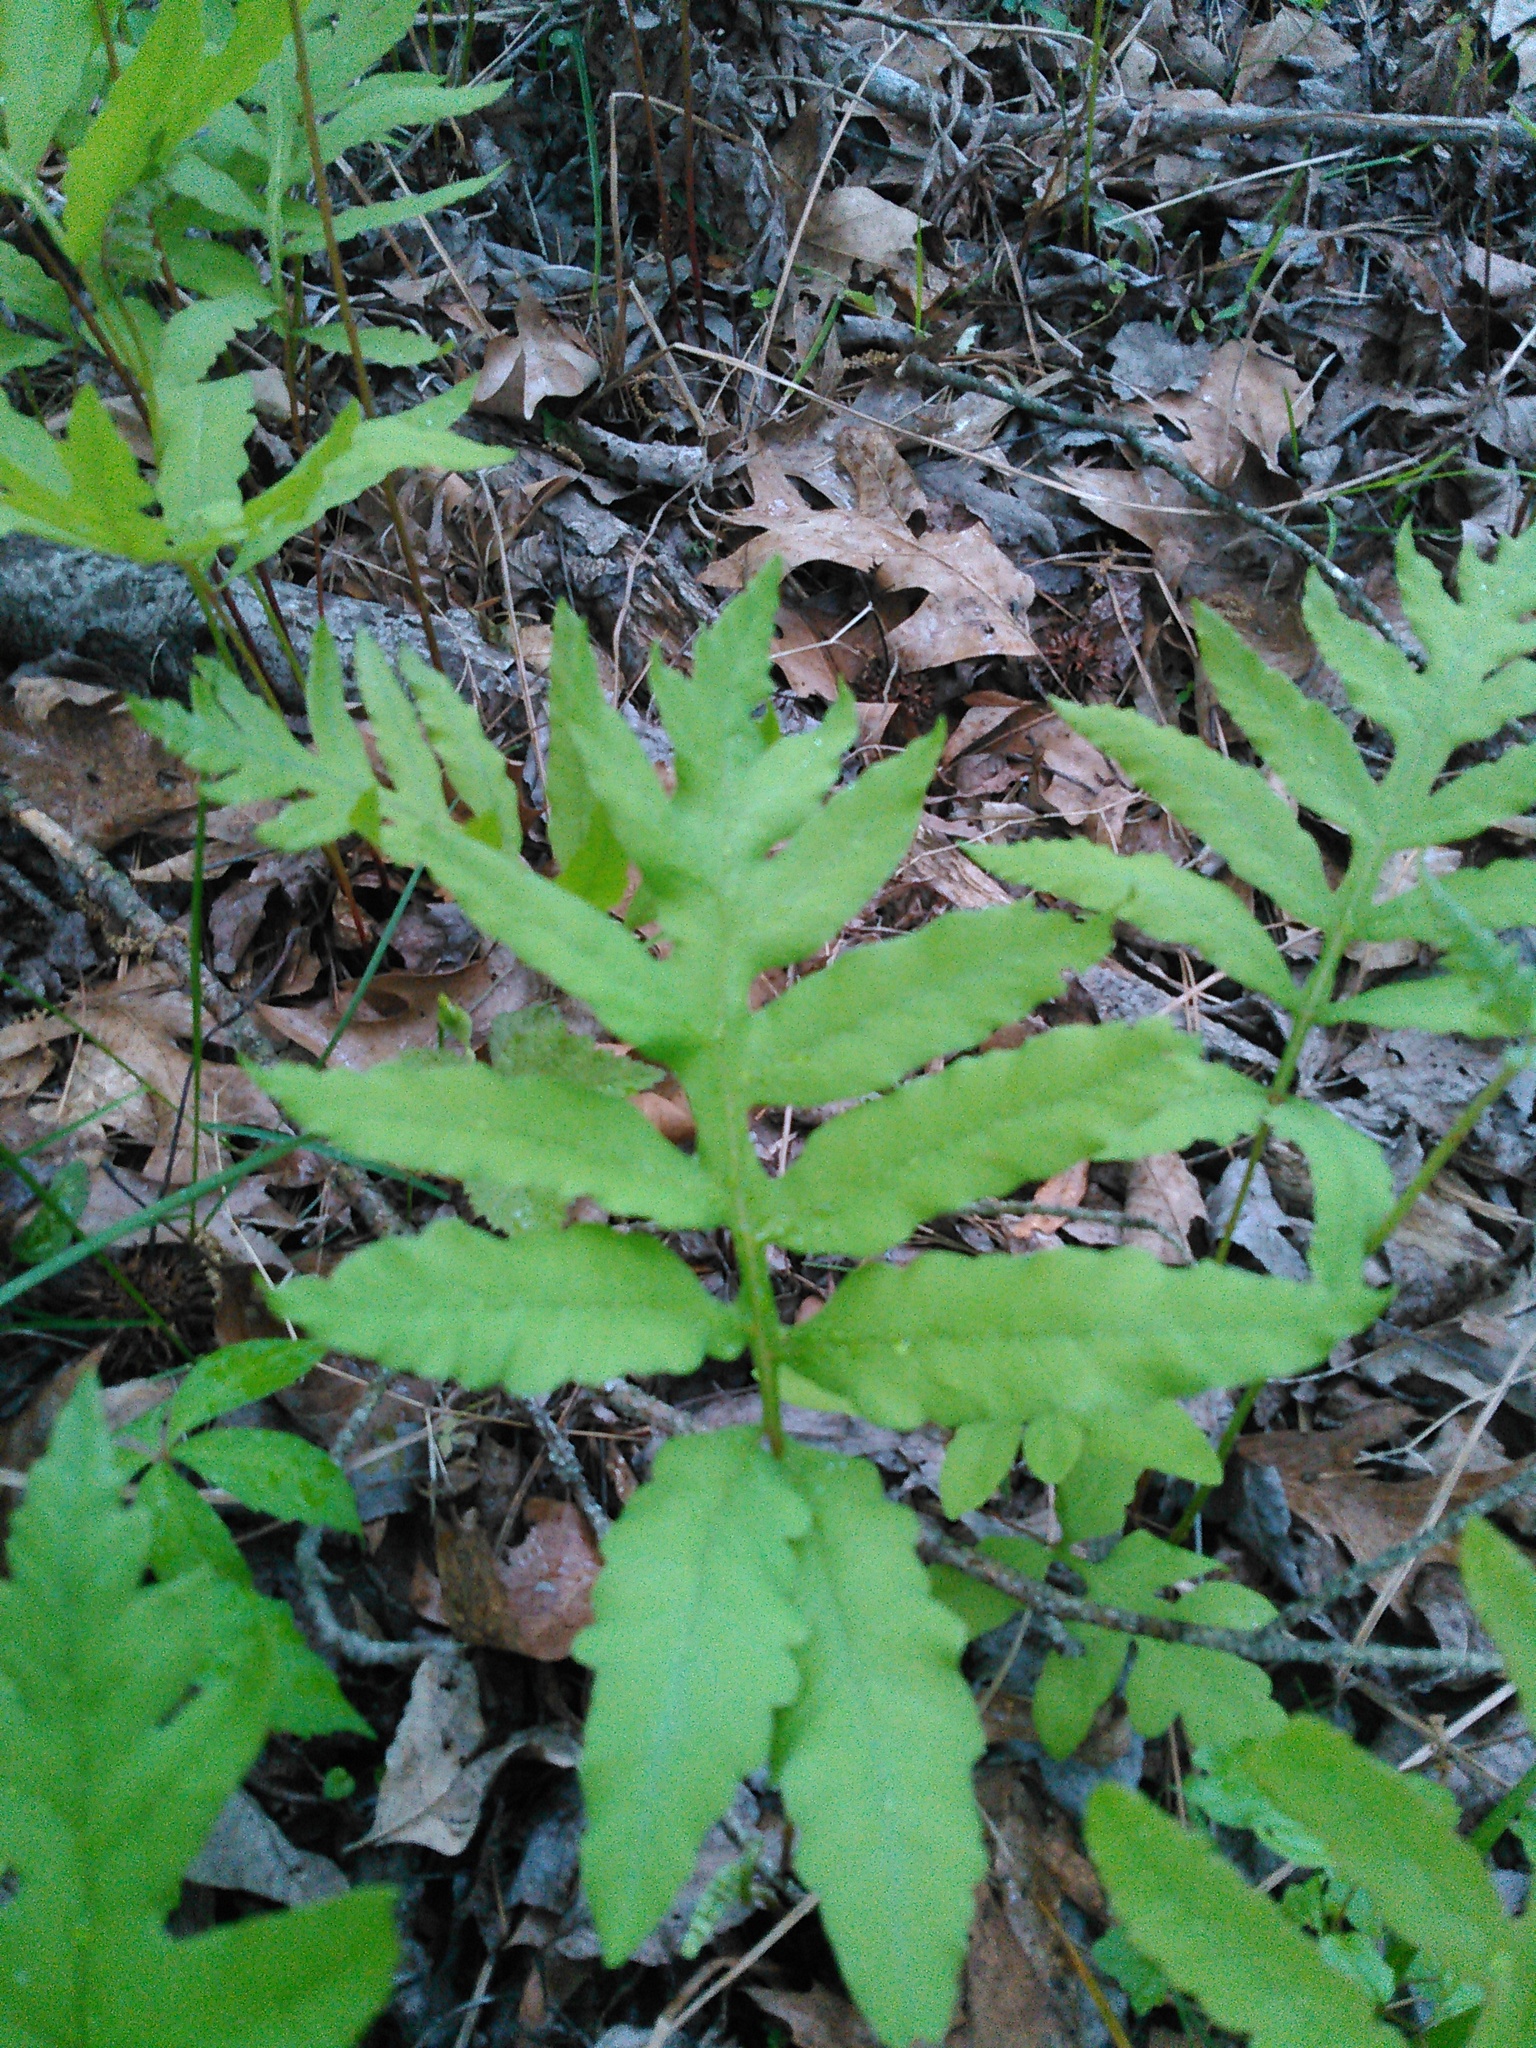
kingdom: Plantae
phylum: Tracheophyta
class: Polypodiopsida
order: Polypodiales
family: Onocleaceae
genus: Onoclea
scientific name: Onoclea sensibilis
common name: Sensitive fern
